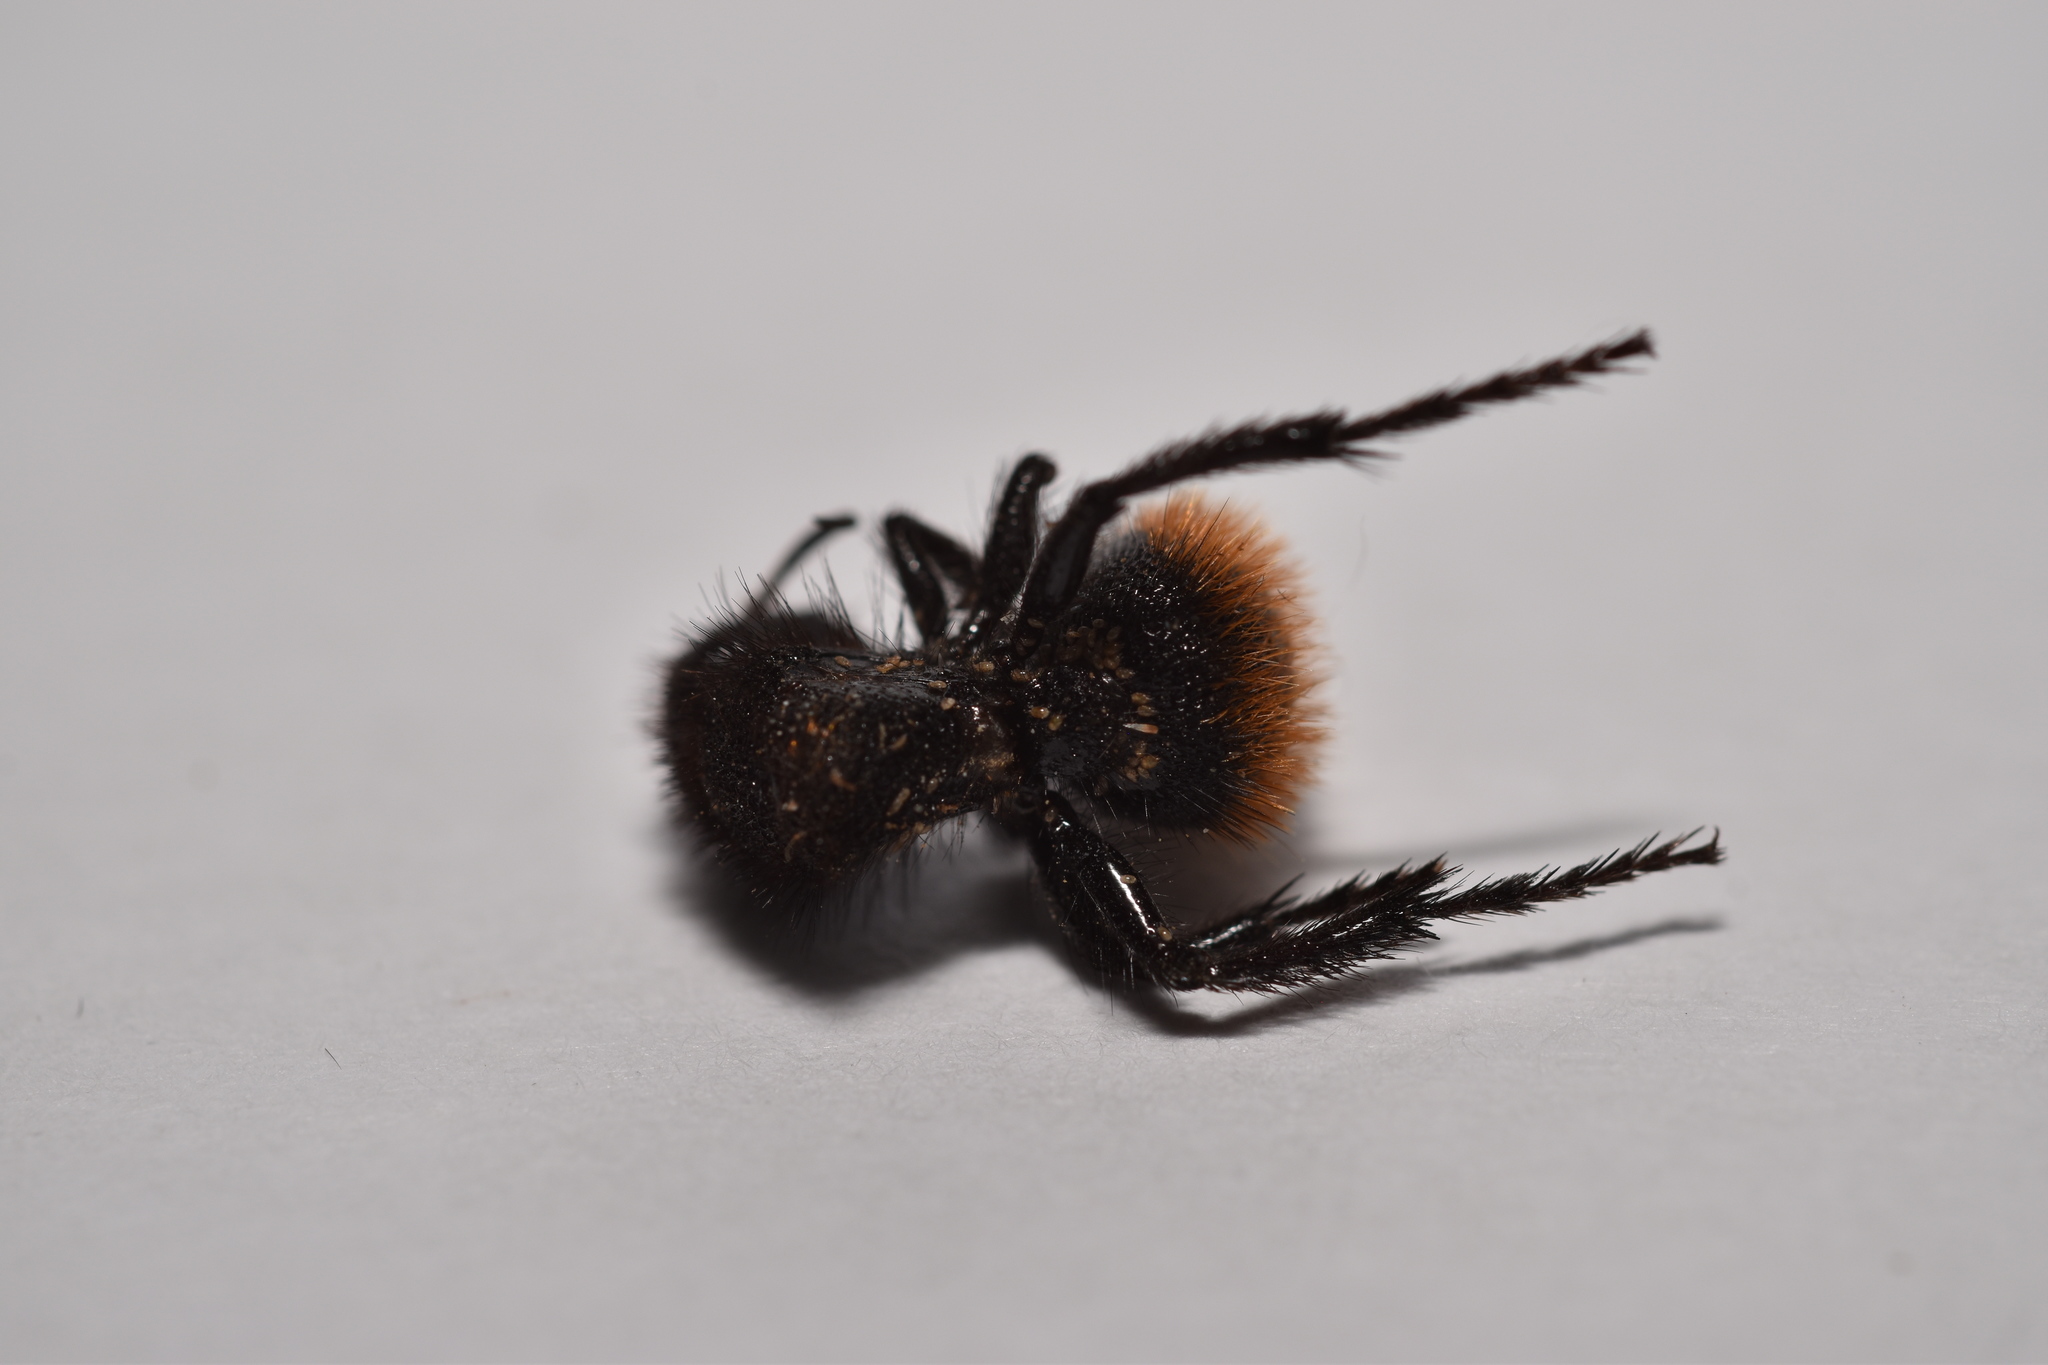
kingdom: Animalia
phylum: Arthropoda
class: Insecta
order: Hymenoptera
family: Mutillidae
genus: Dasymutilla
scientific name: Dasymutilla gorgon
